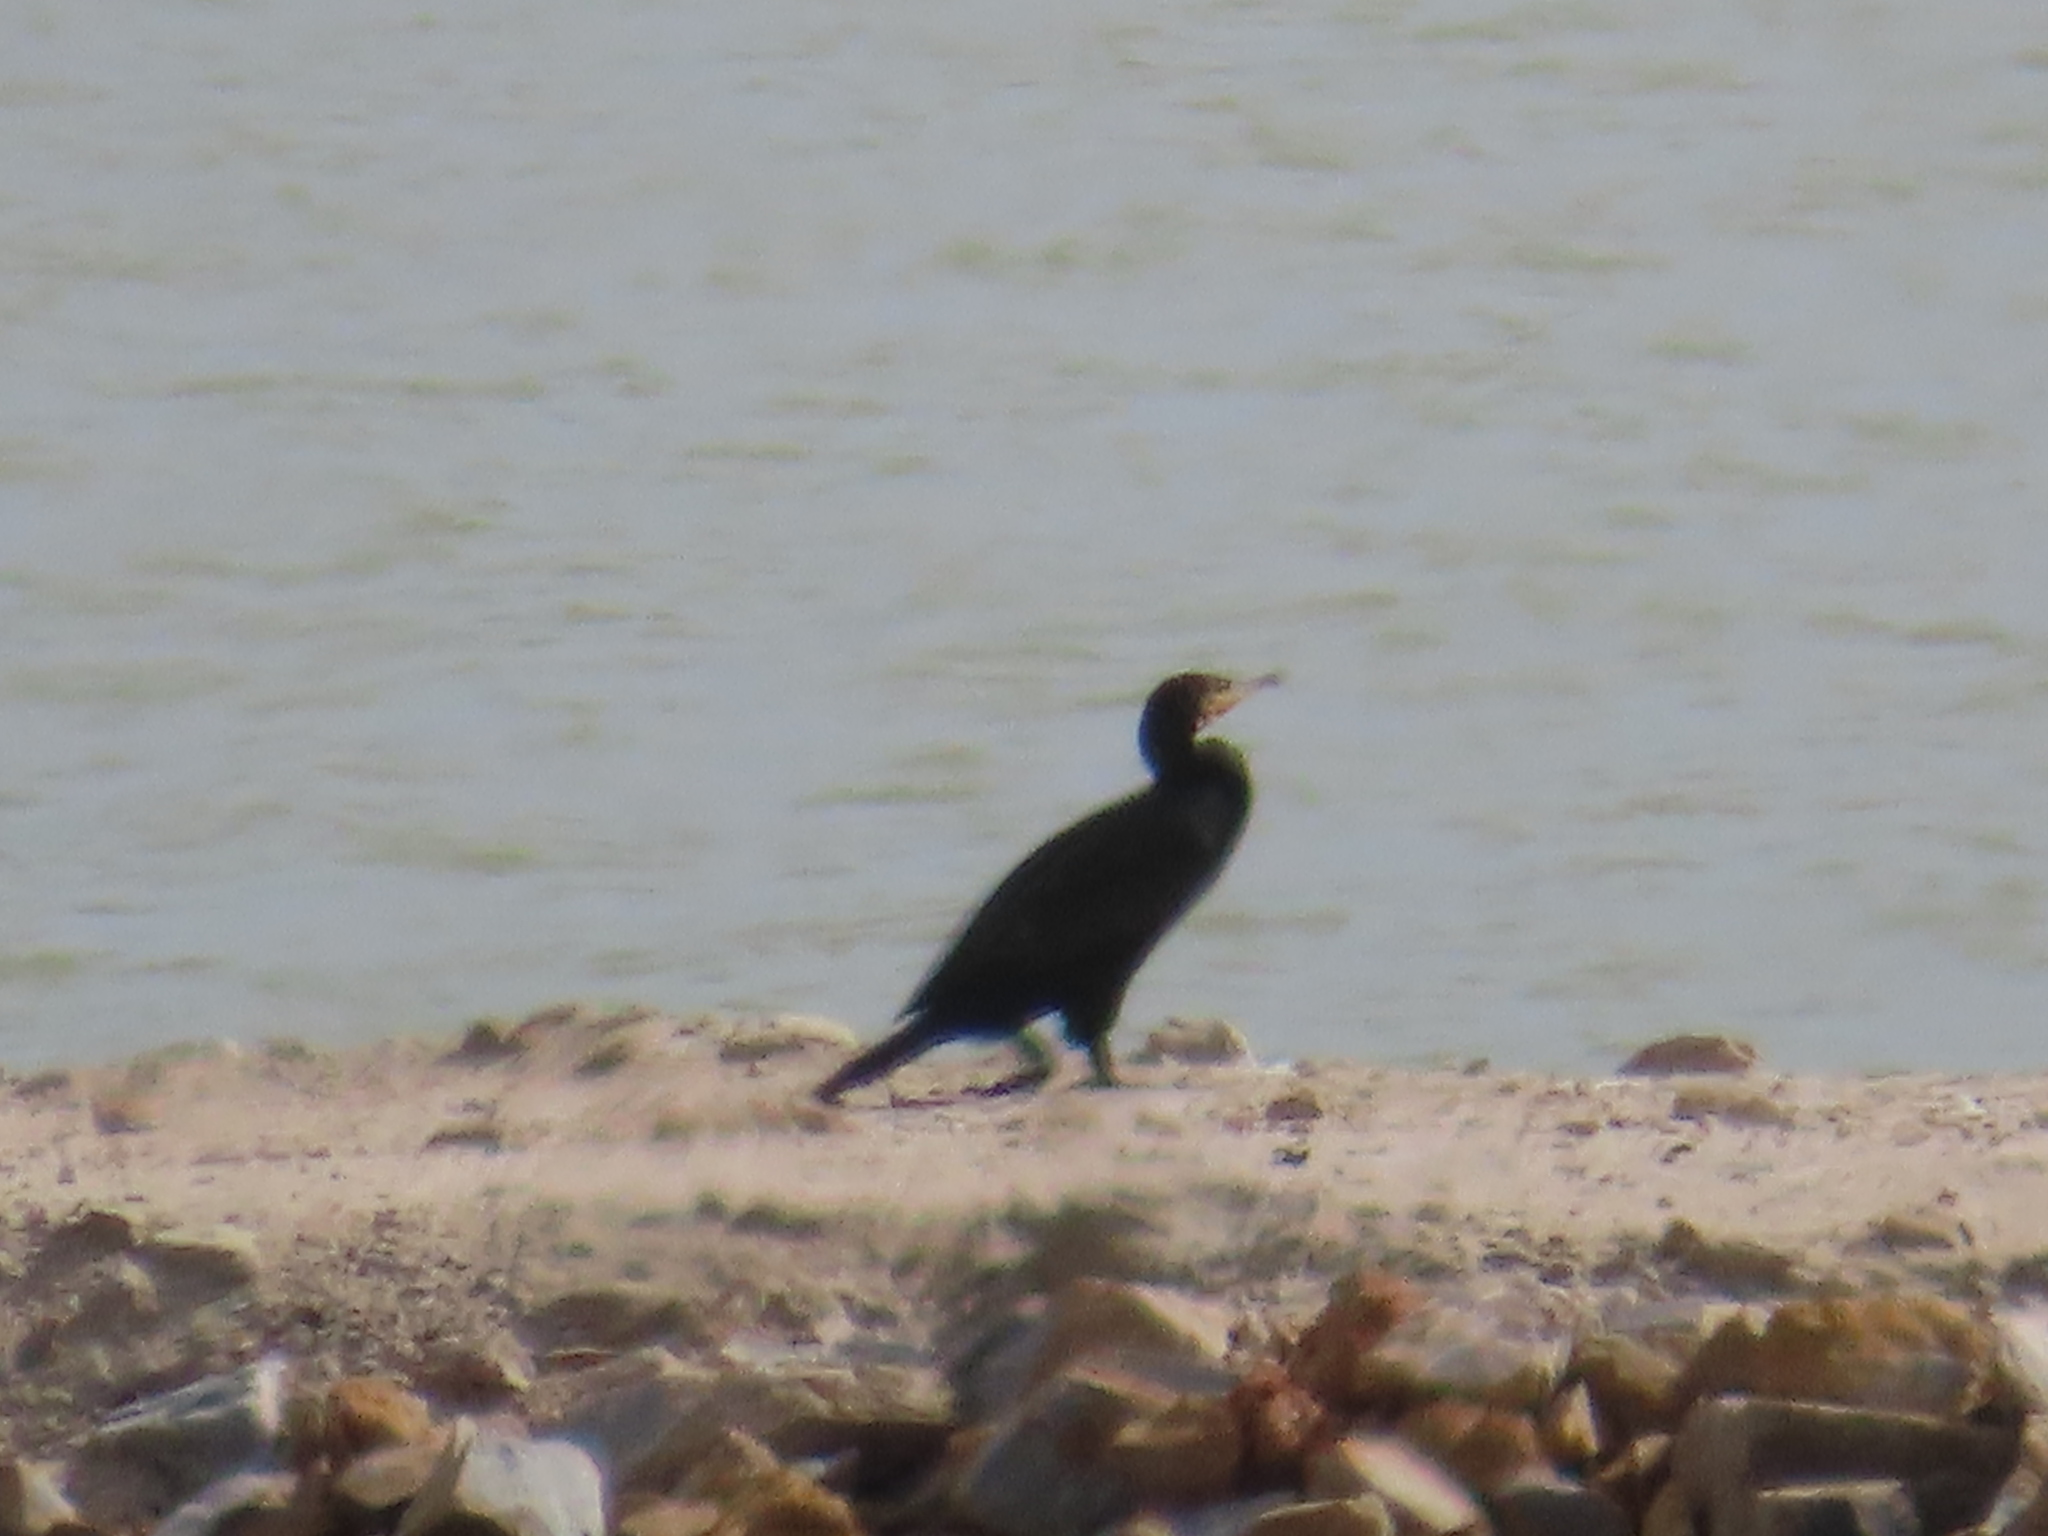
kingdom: Animalia
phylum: Chordata
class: Aves
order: Suliformes
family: Phalacrocoracidae
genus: Phalacrocorax
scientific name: Phalacrocorax carbo
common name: Great cormorant
